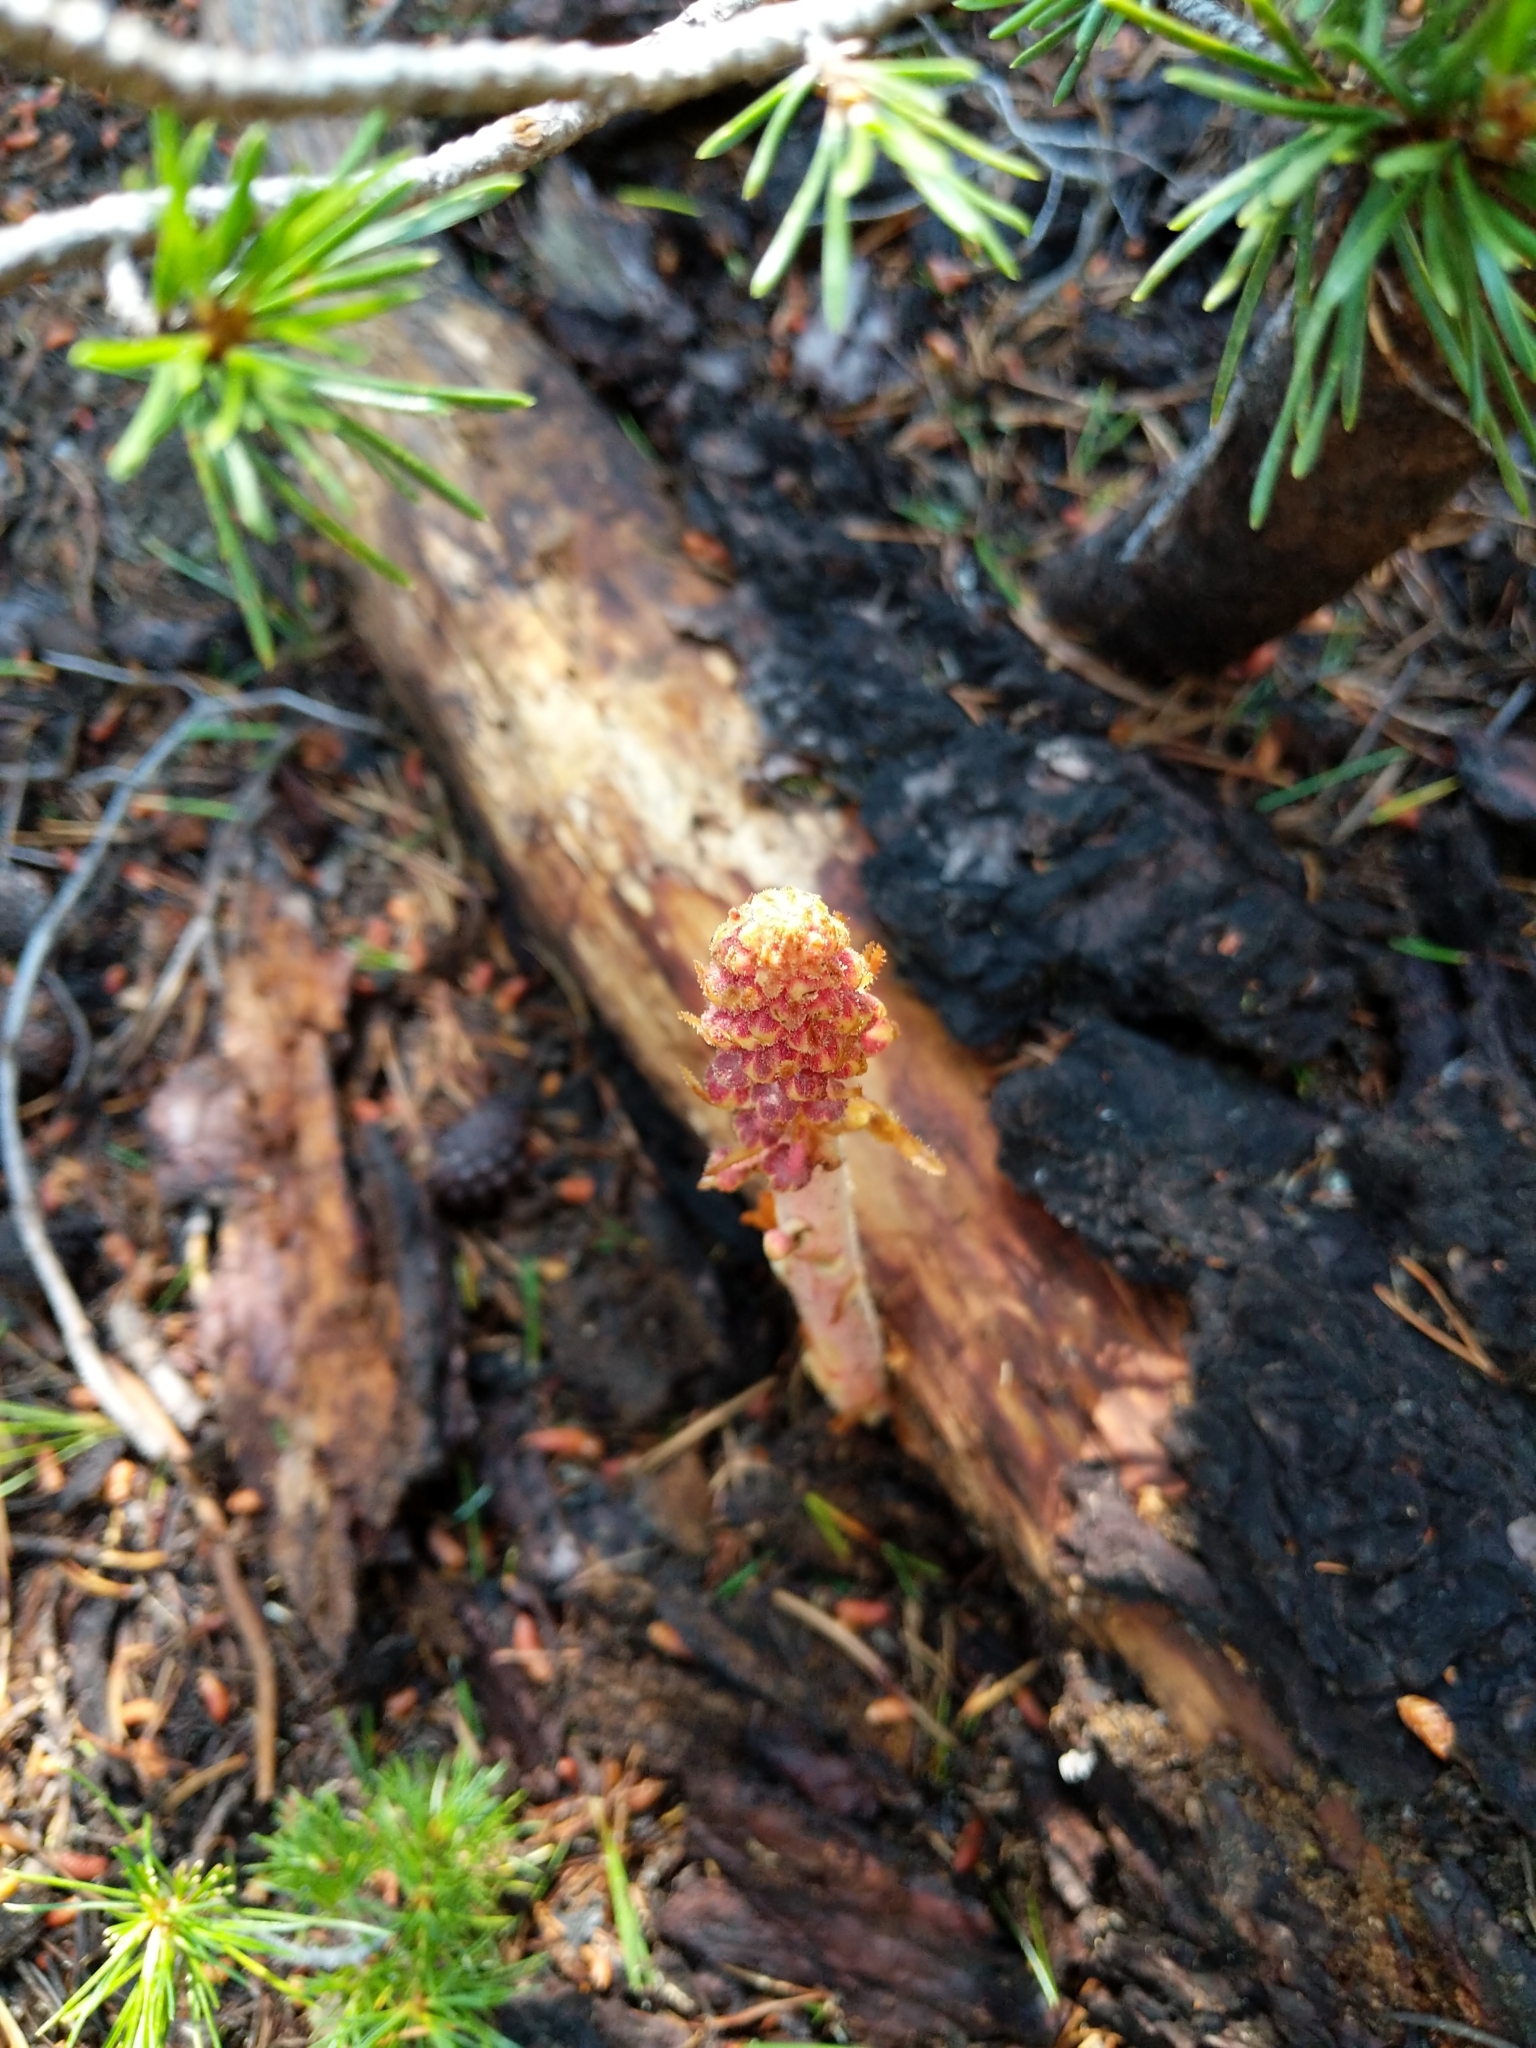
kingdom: Plantae
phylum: Tracheophyta
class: Magnoliopsida
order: Ericales
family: Ericaceae
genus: Pterospora
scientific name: Pterospora andromedea
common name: Giant bird's-nest
